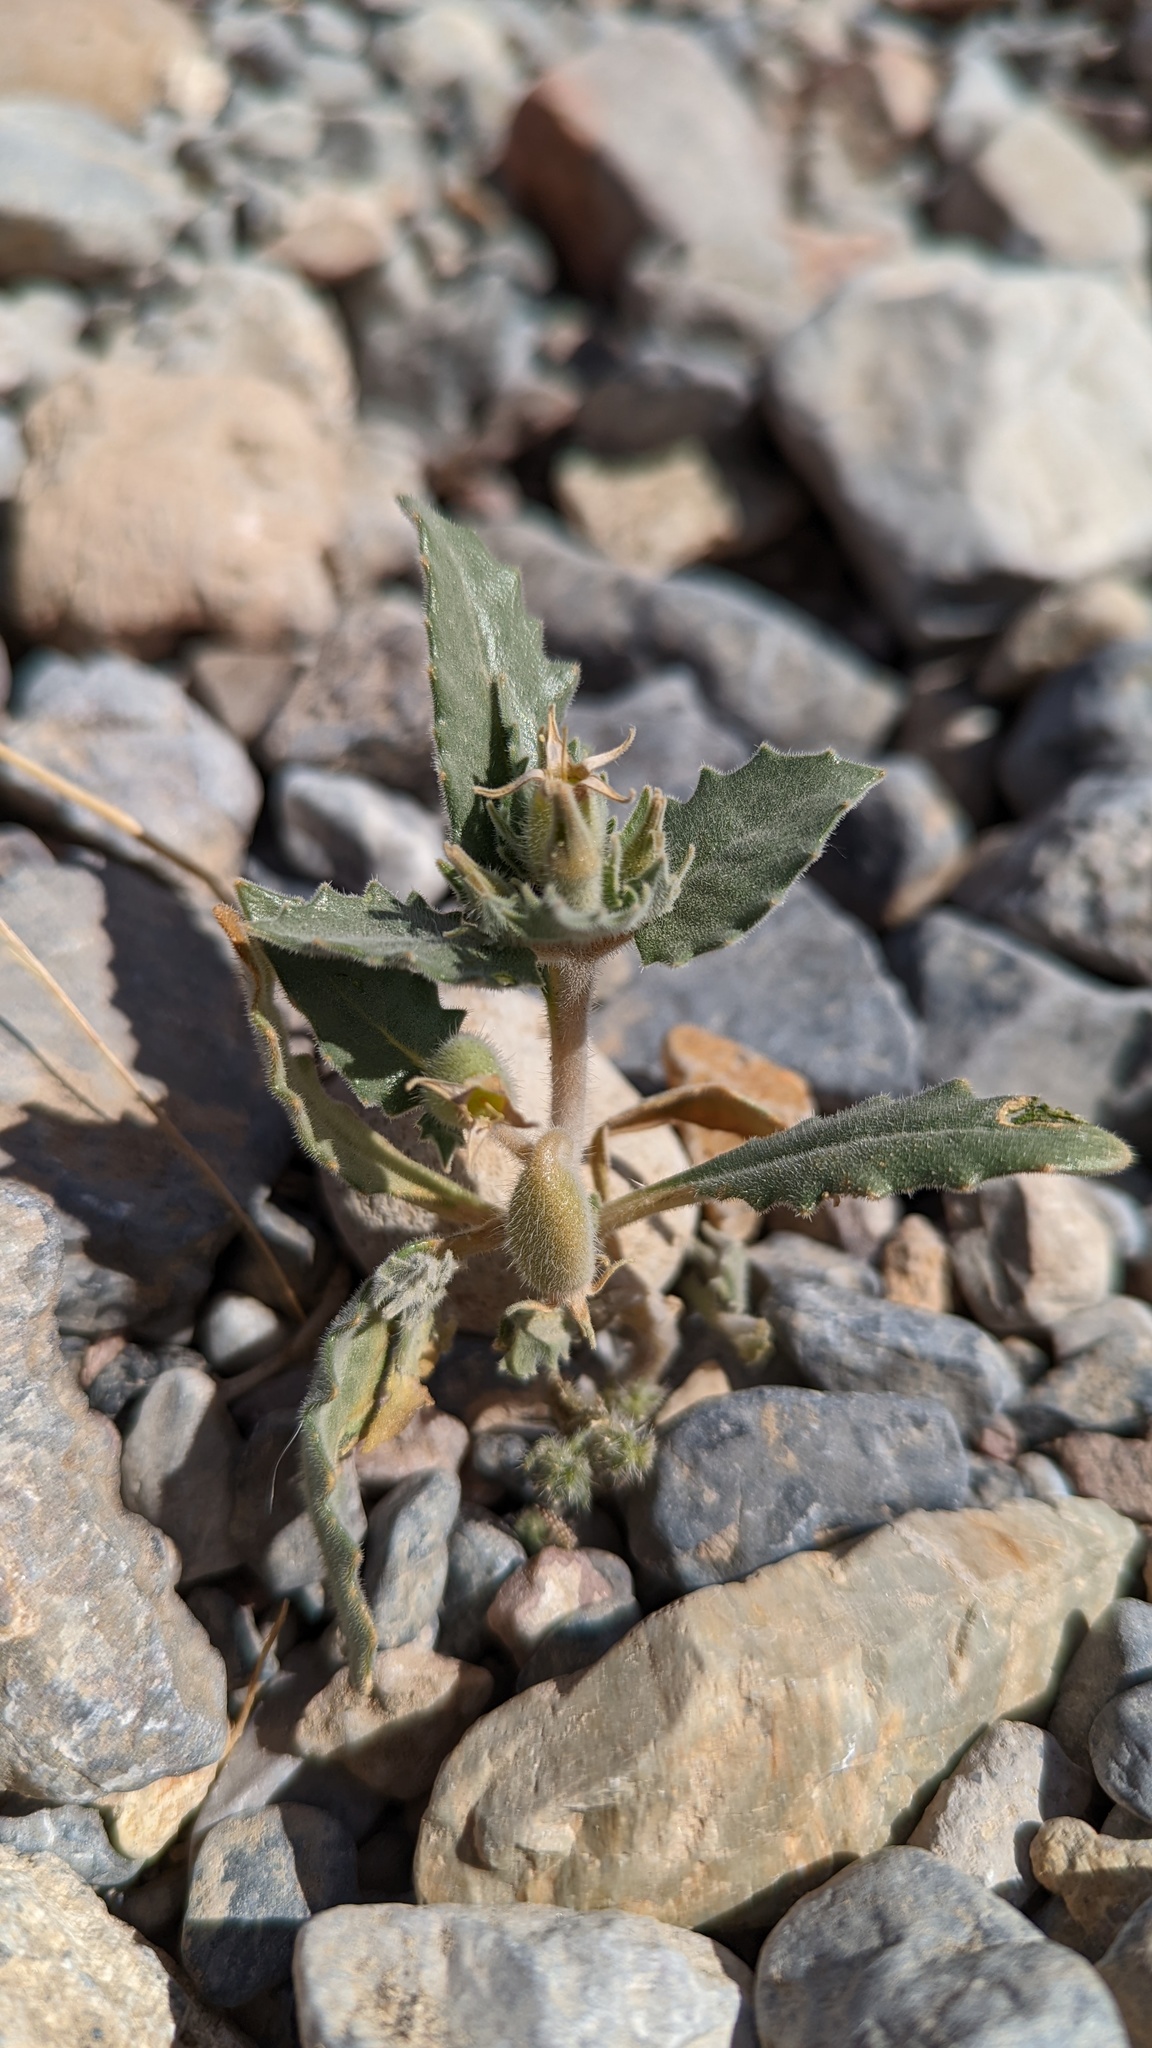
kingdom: Plantae
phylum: Tracheophyta
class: Magnoliopsida
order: Cornales
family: Loasaceae
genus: Mentzelia
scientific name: Mentzelia reflexa
